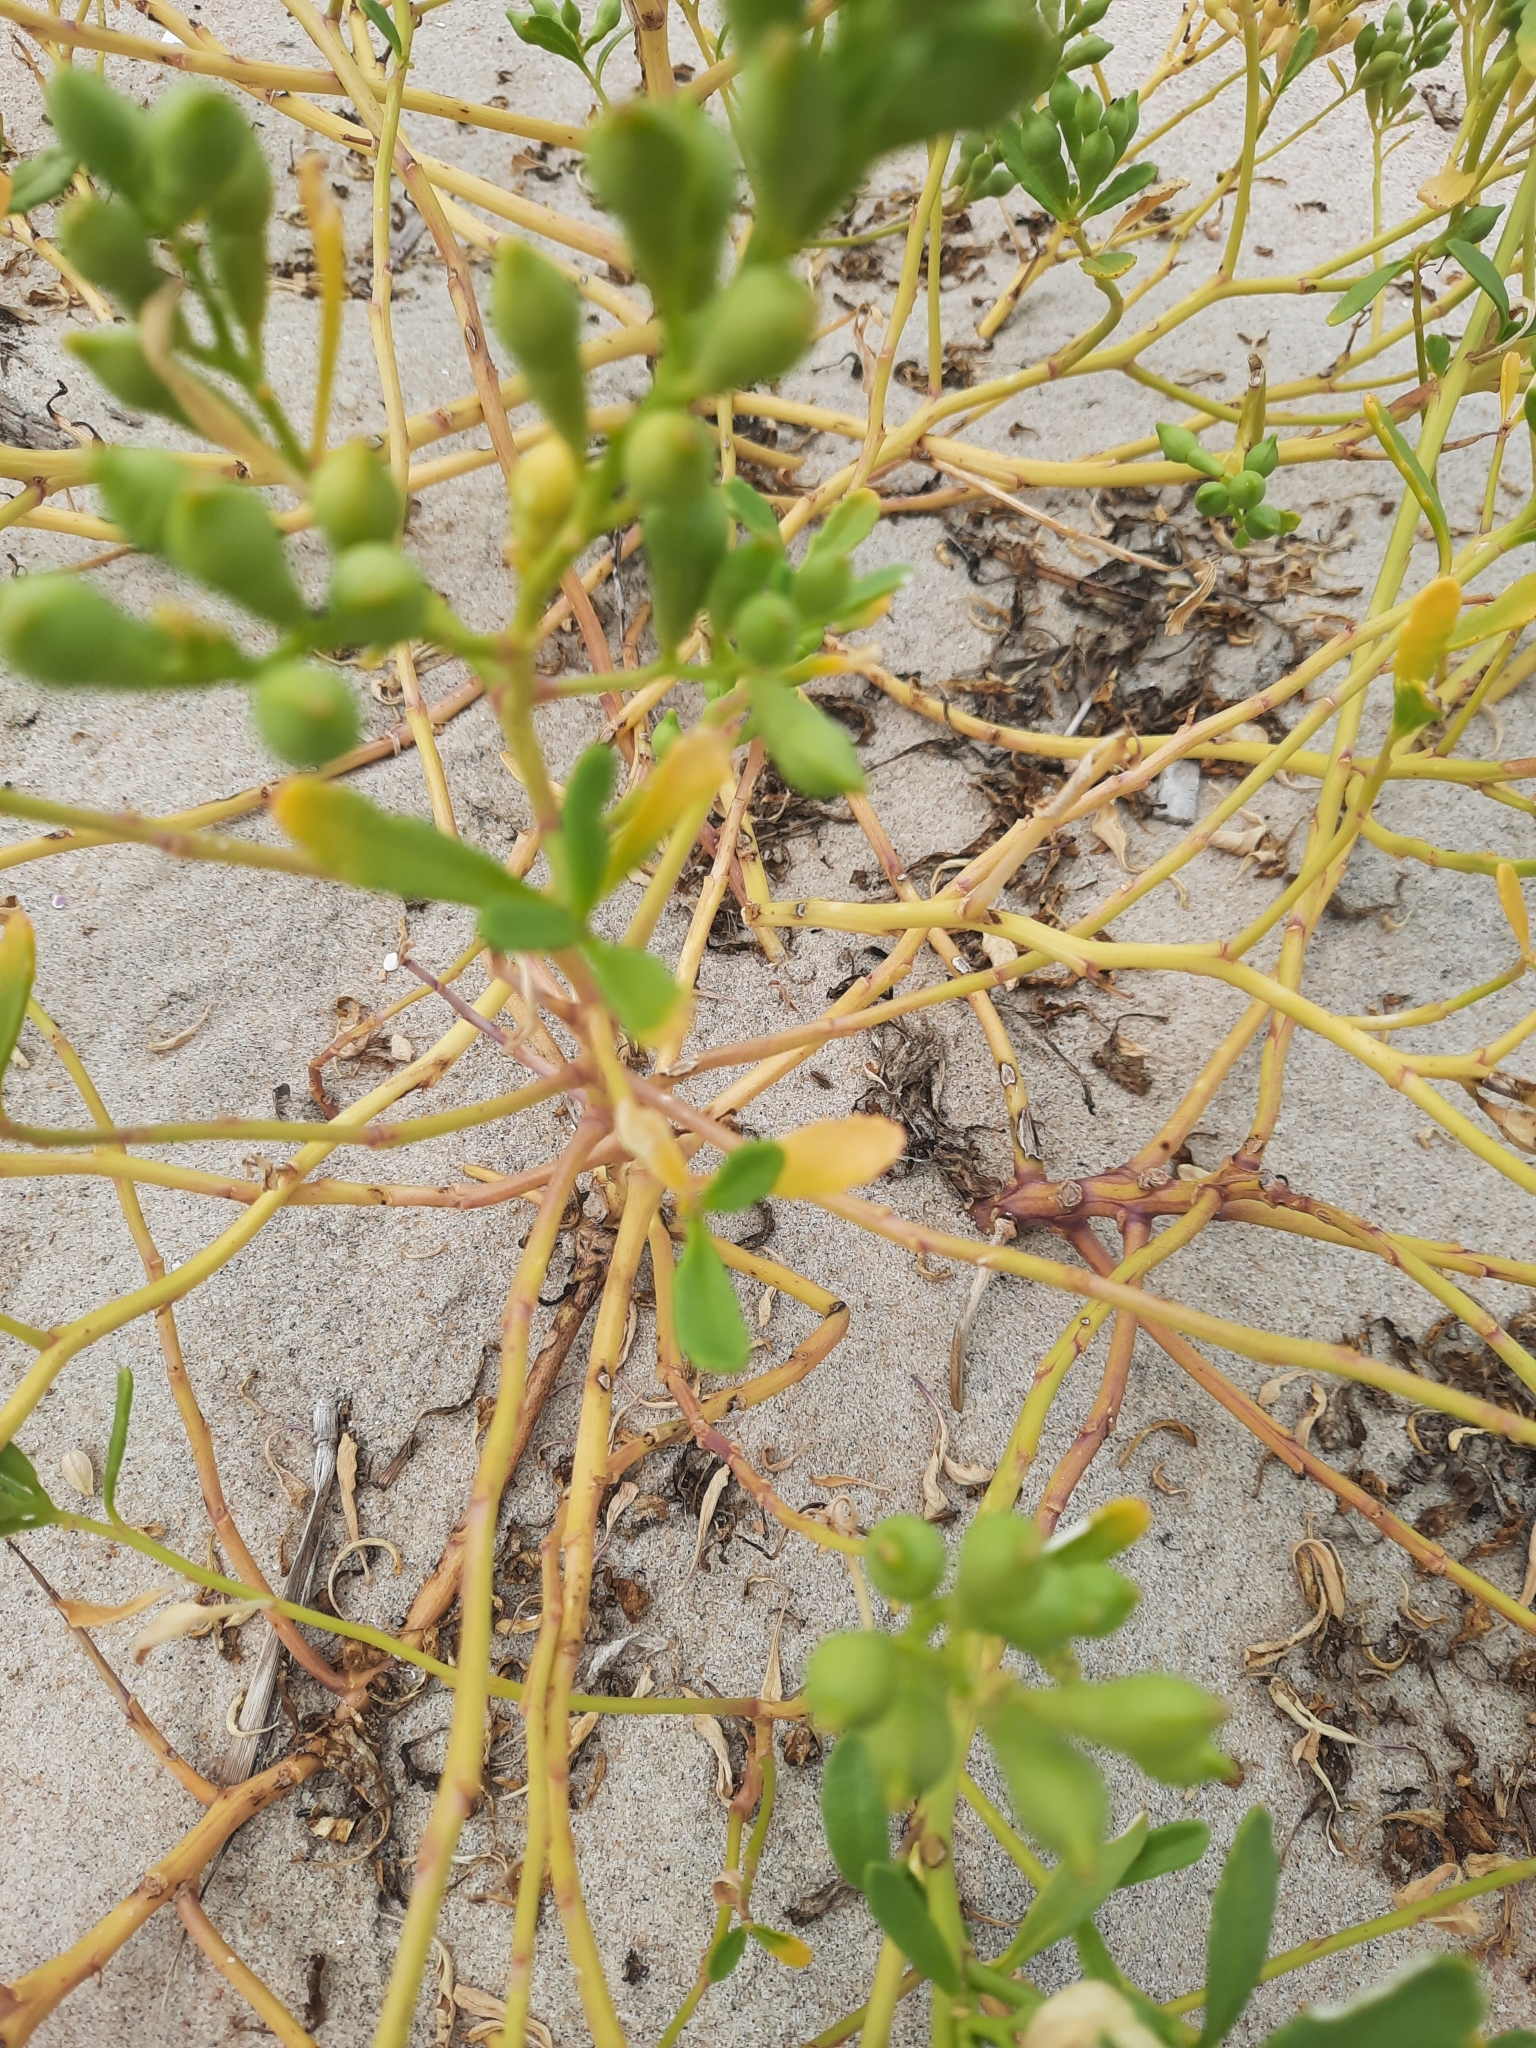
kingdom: Plantae
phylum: Tracheophyta
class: Magnoliopsida
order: Brassicales
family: Brassicaceae
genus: Cakile
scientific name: Cakile edentula
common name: American sea rocket
